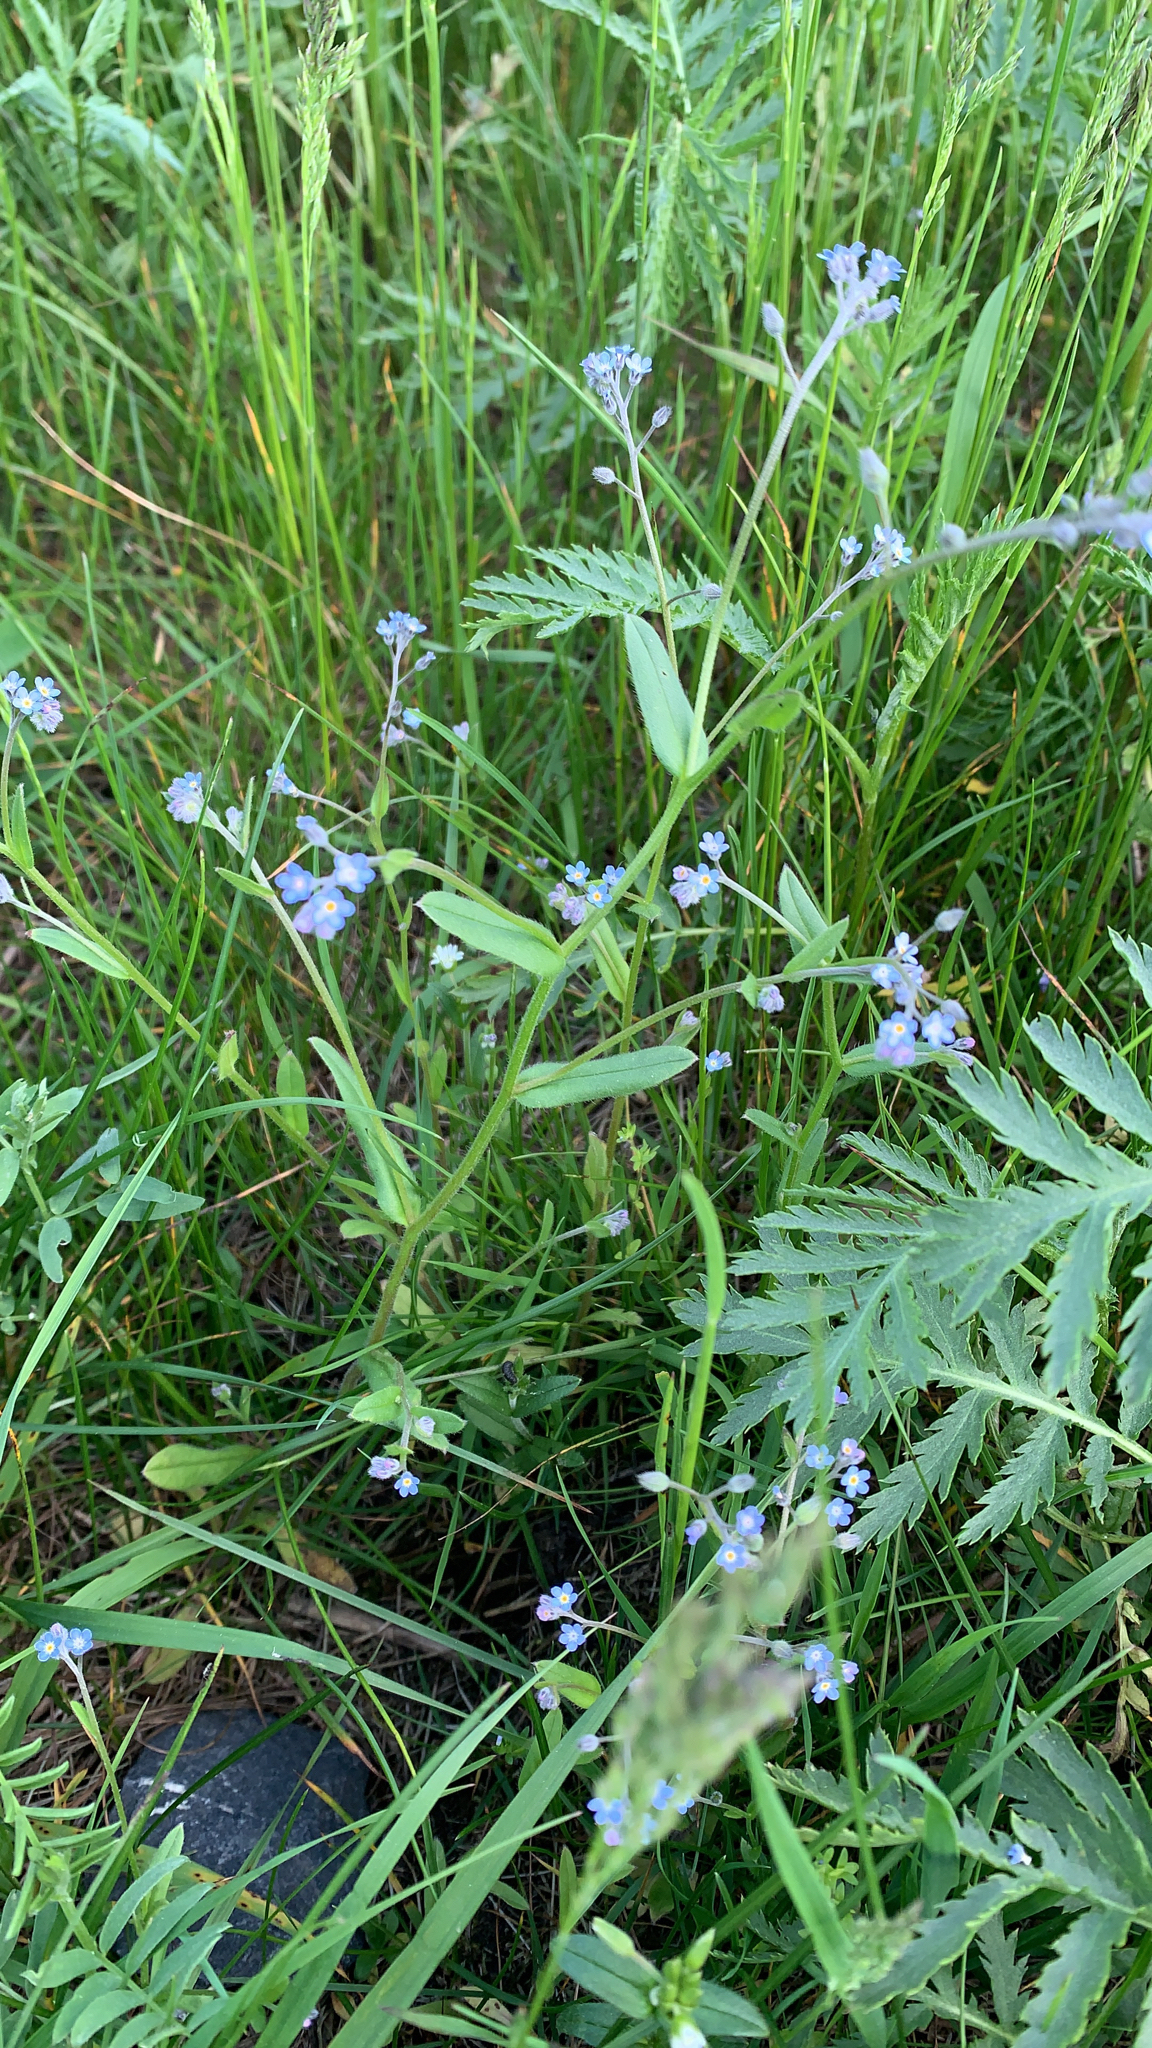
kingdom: Plantae
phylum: Tracheophyta
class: Magnoliopsida
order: Boraginales
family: Boraginaceae
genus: Myosotis
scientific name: Myosotis arvensis
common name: Field forget-me-not
